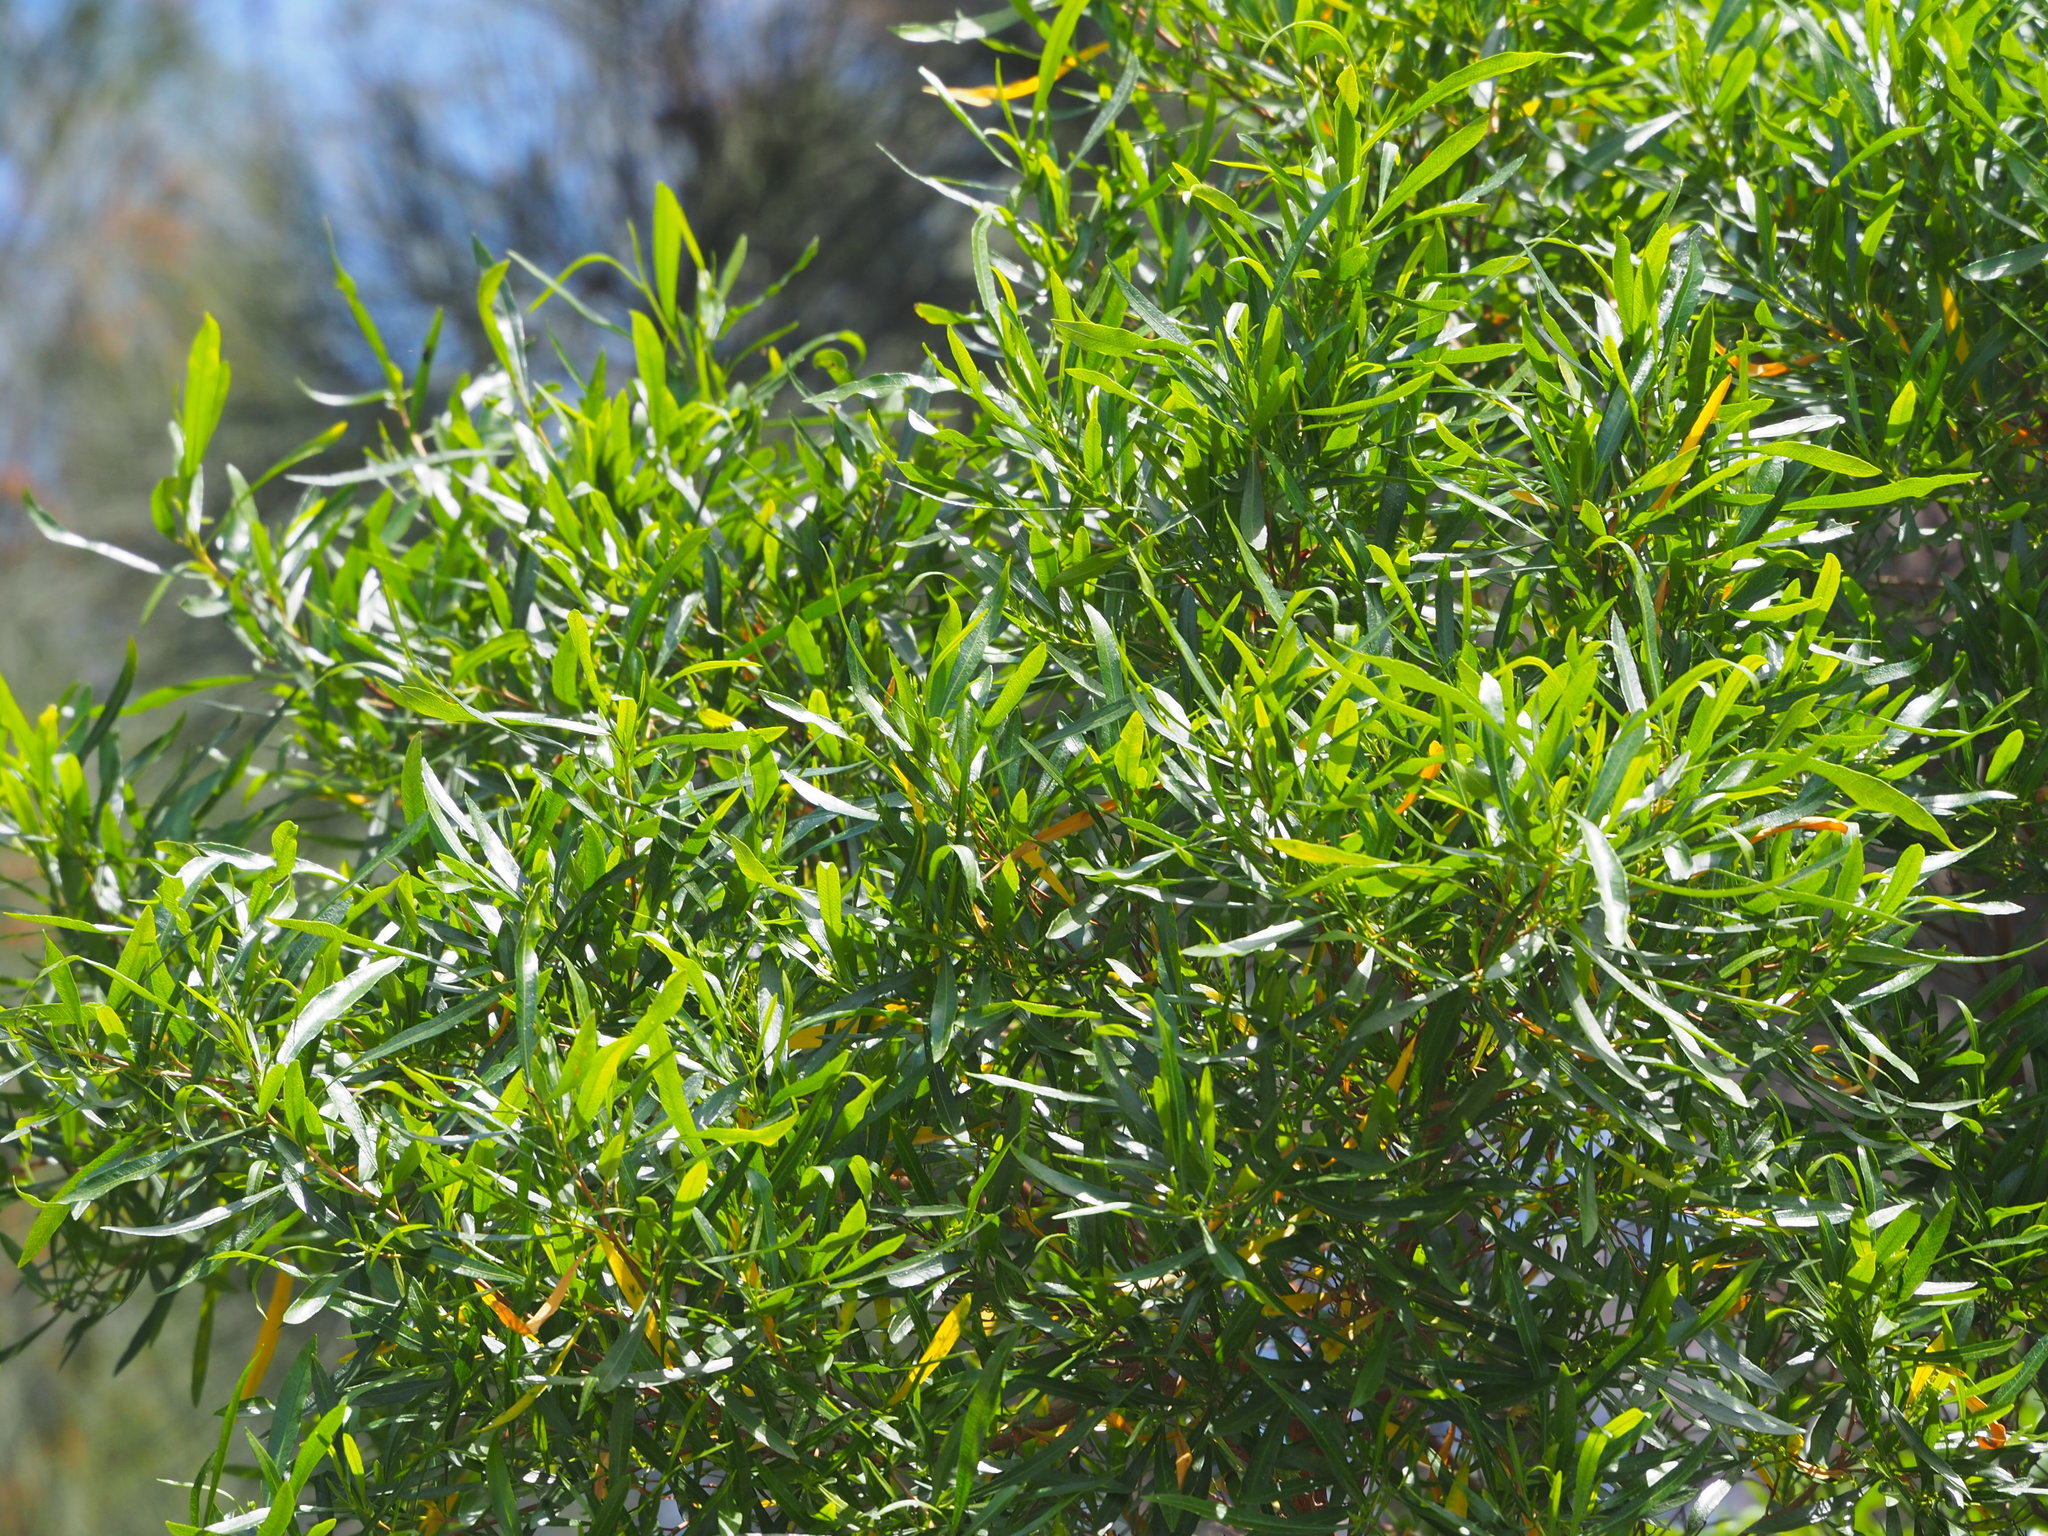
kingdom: Plantae
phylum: Tracheophyta
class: Magnoliopsida
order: Sapindales
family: Sapindaceae
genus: Dodonaea
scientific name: Dodonaea viscosa
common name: Hopbush
